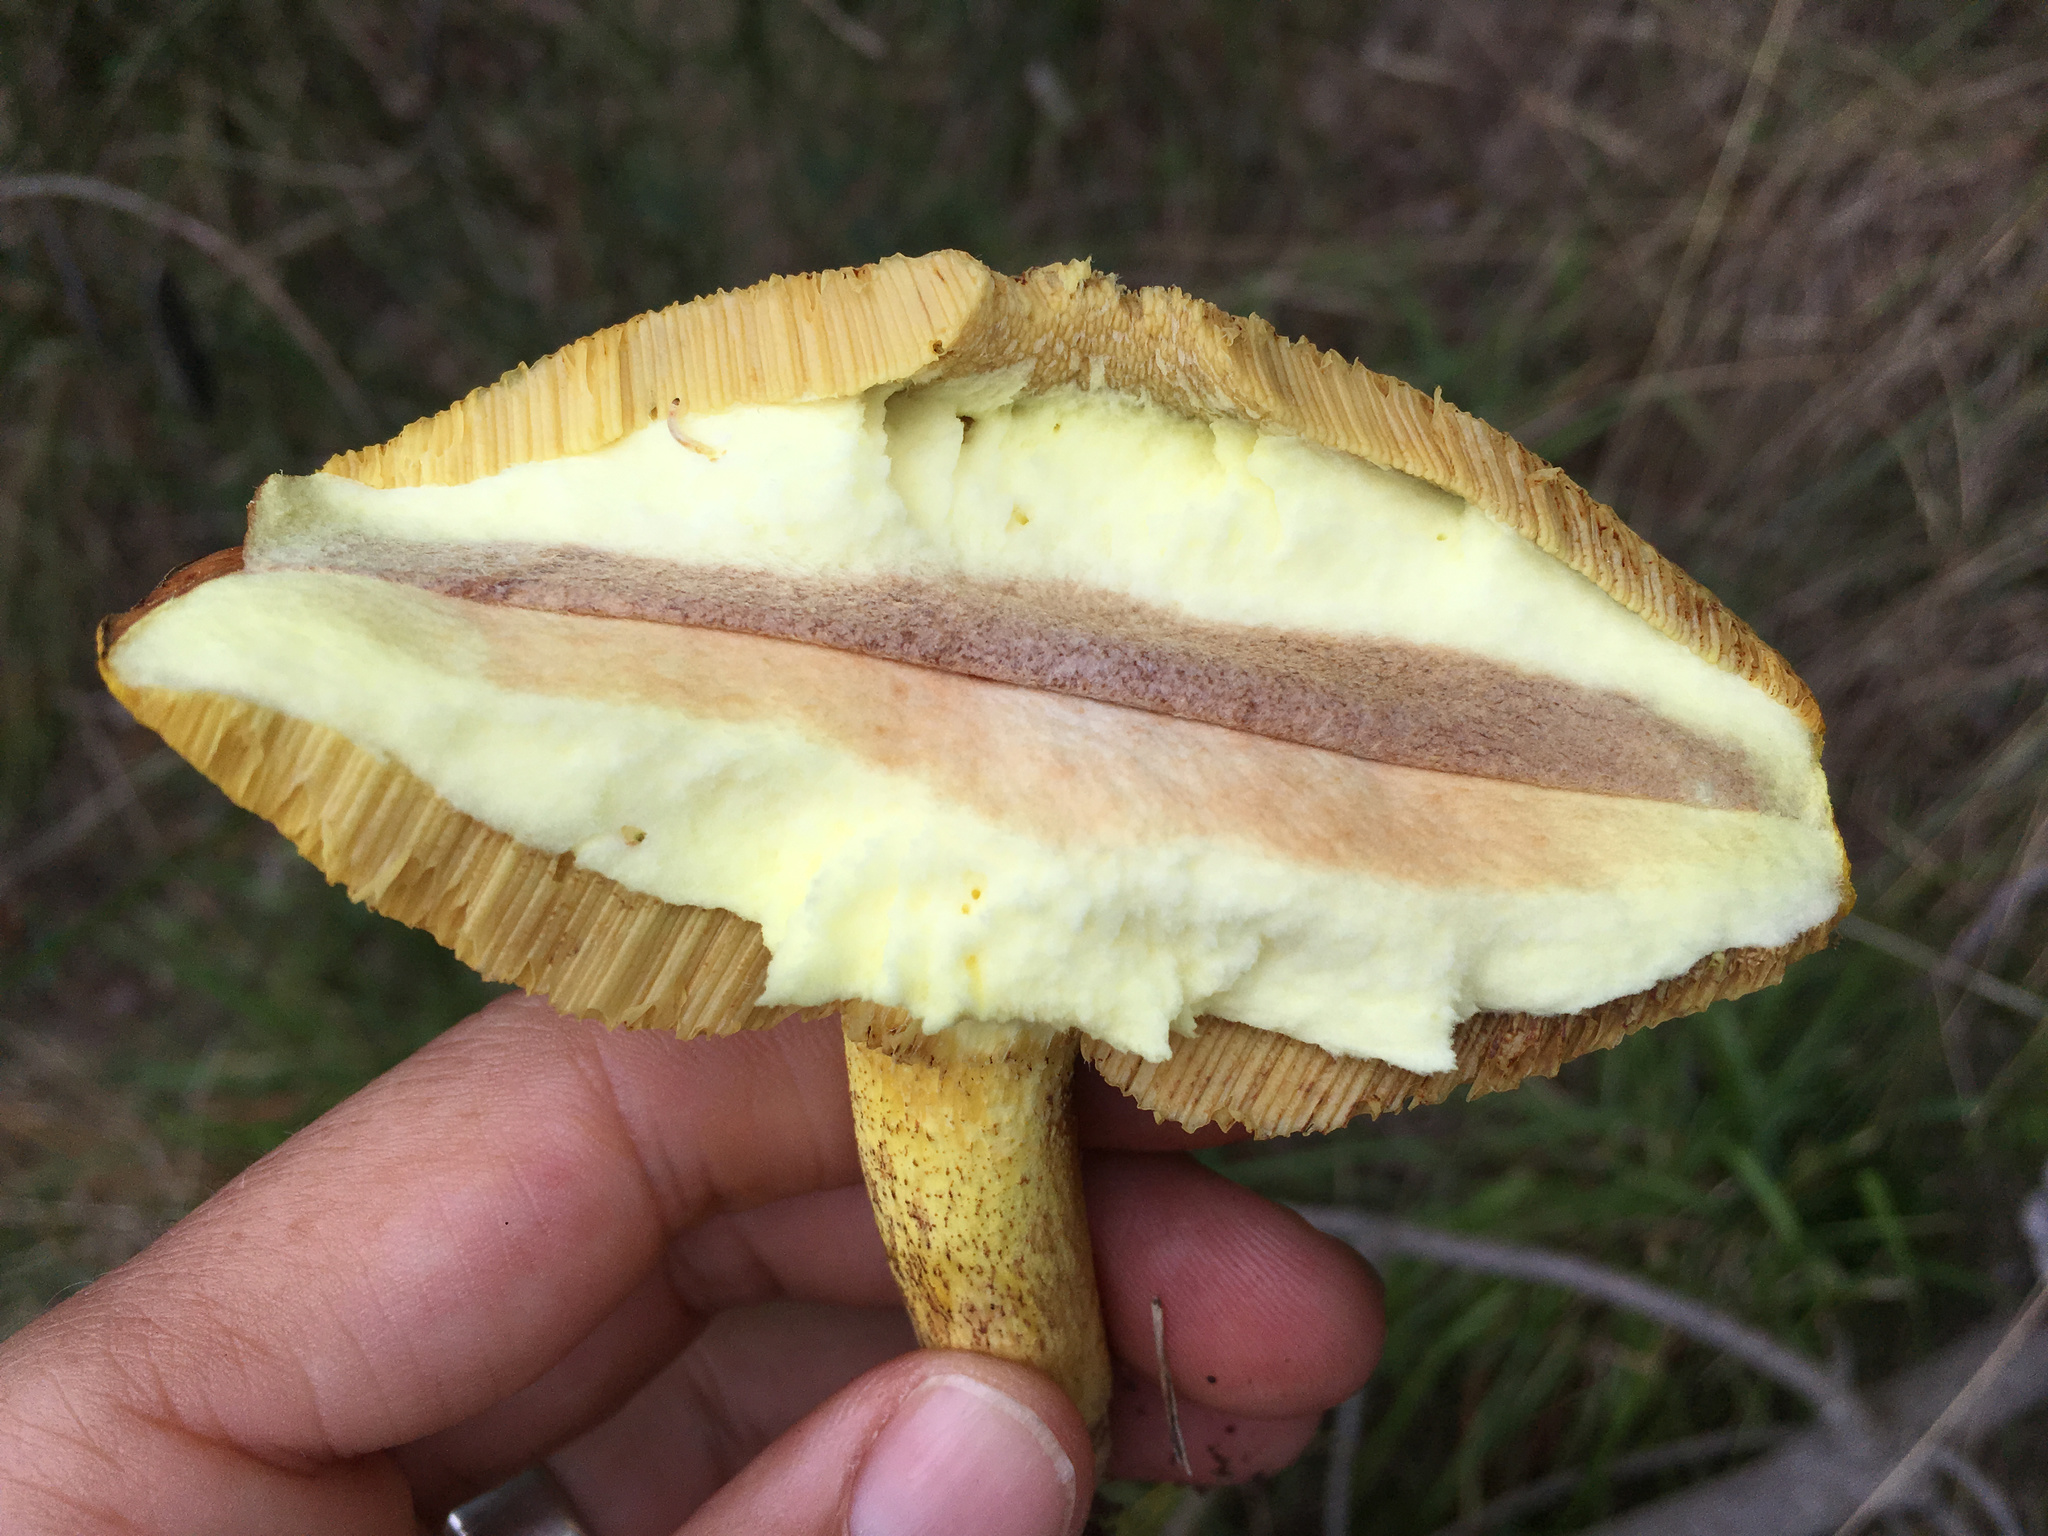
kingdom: Fungi
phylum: Basidiomycota
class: Agaricomycetes
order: Boletales
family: Suillaceae
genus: Suillus
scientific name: Suillus granulatus
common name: Weeping bolete
